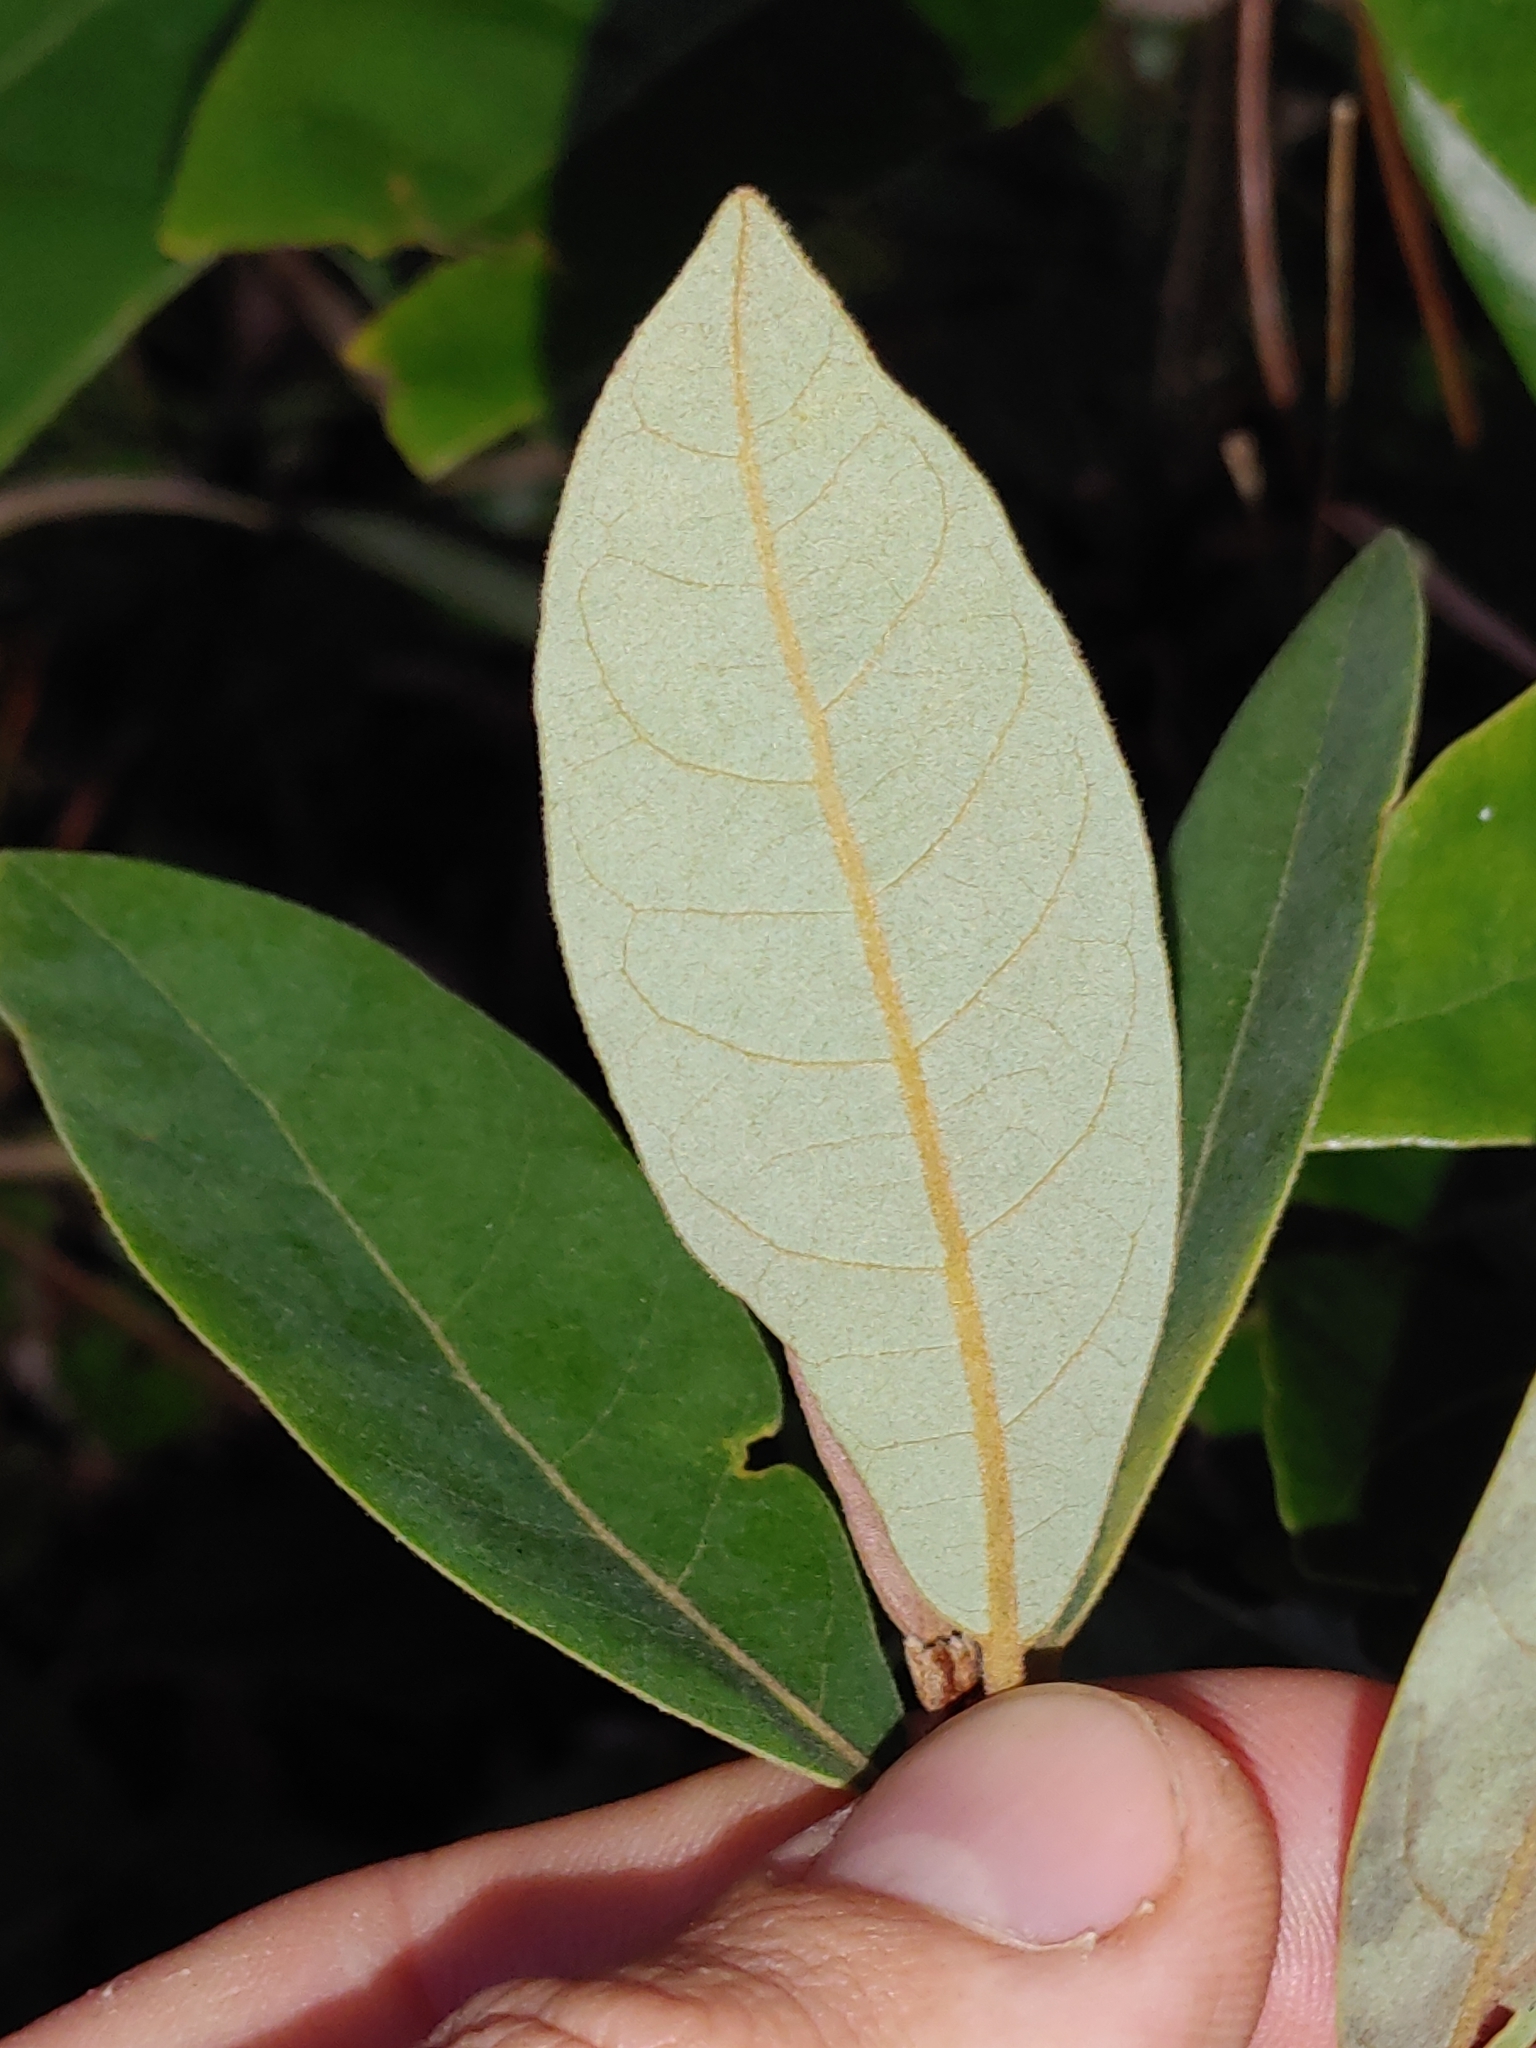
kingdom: Plantae
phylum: Tracheophyta
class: Magnoliopsida
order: Laurales
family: Lauraceae
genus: Persea
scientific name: Persea palustris
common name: Swampbay
